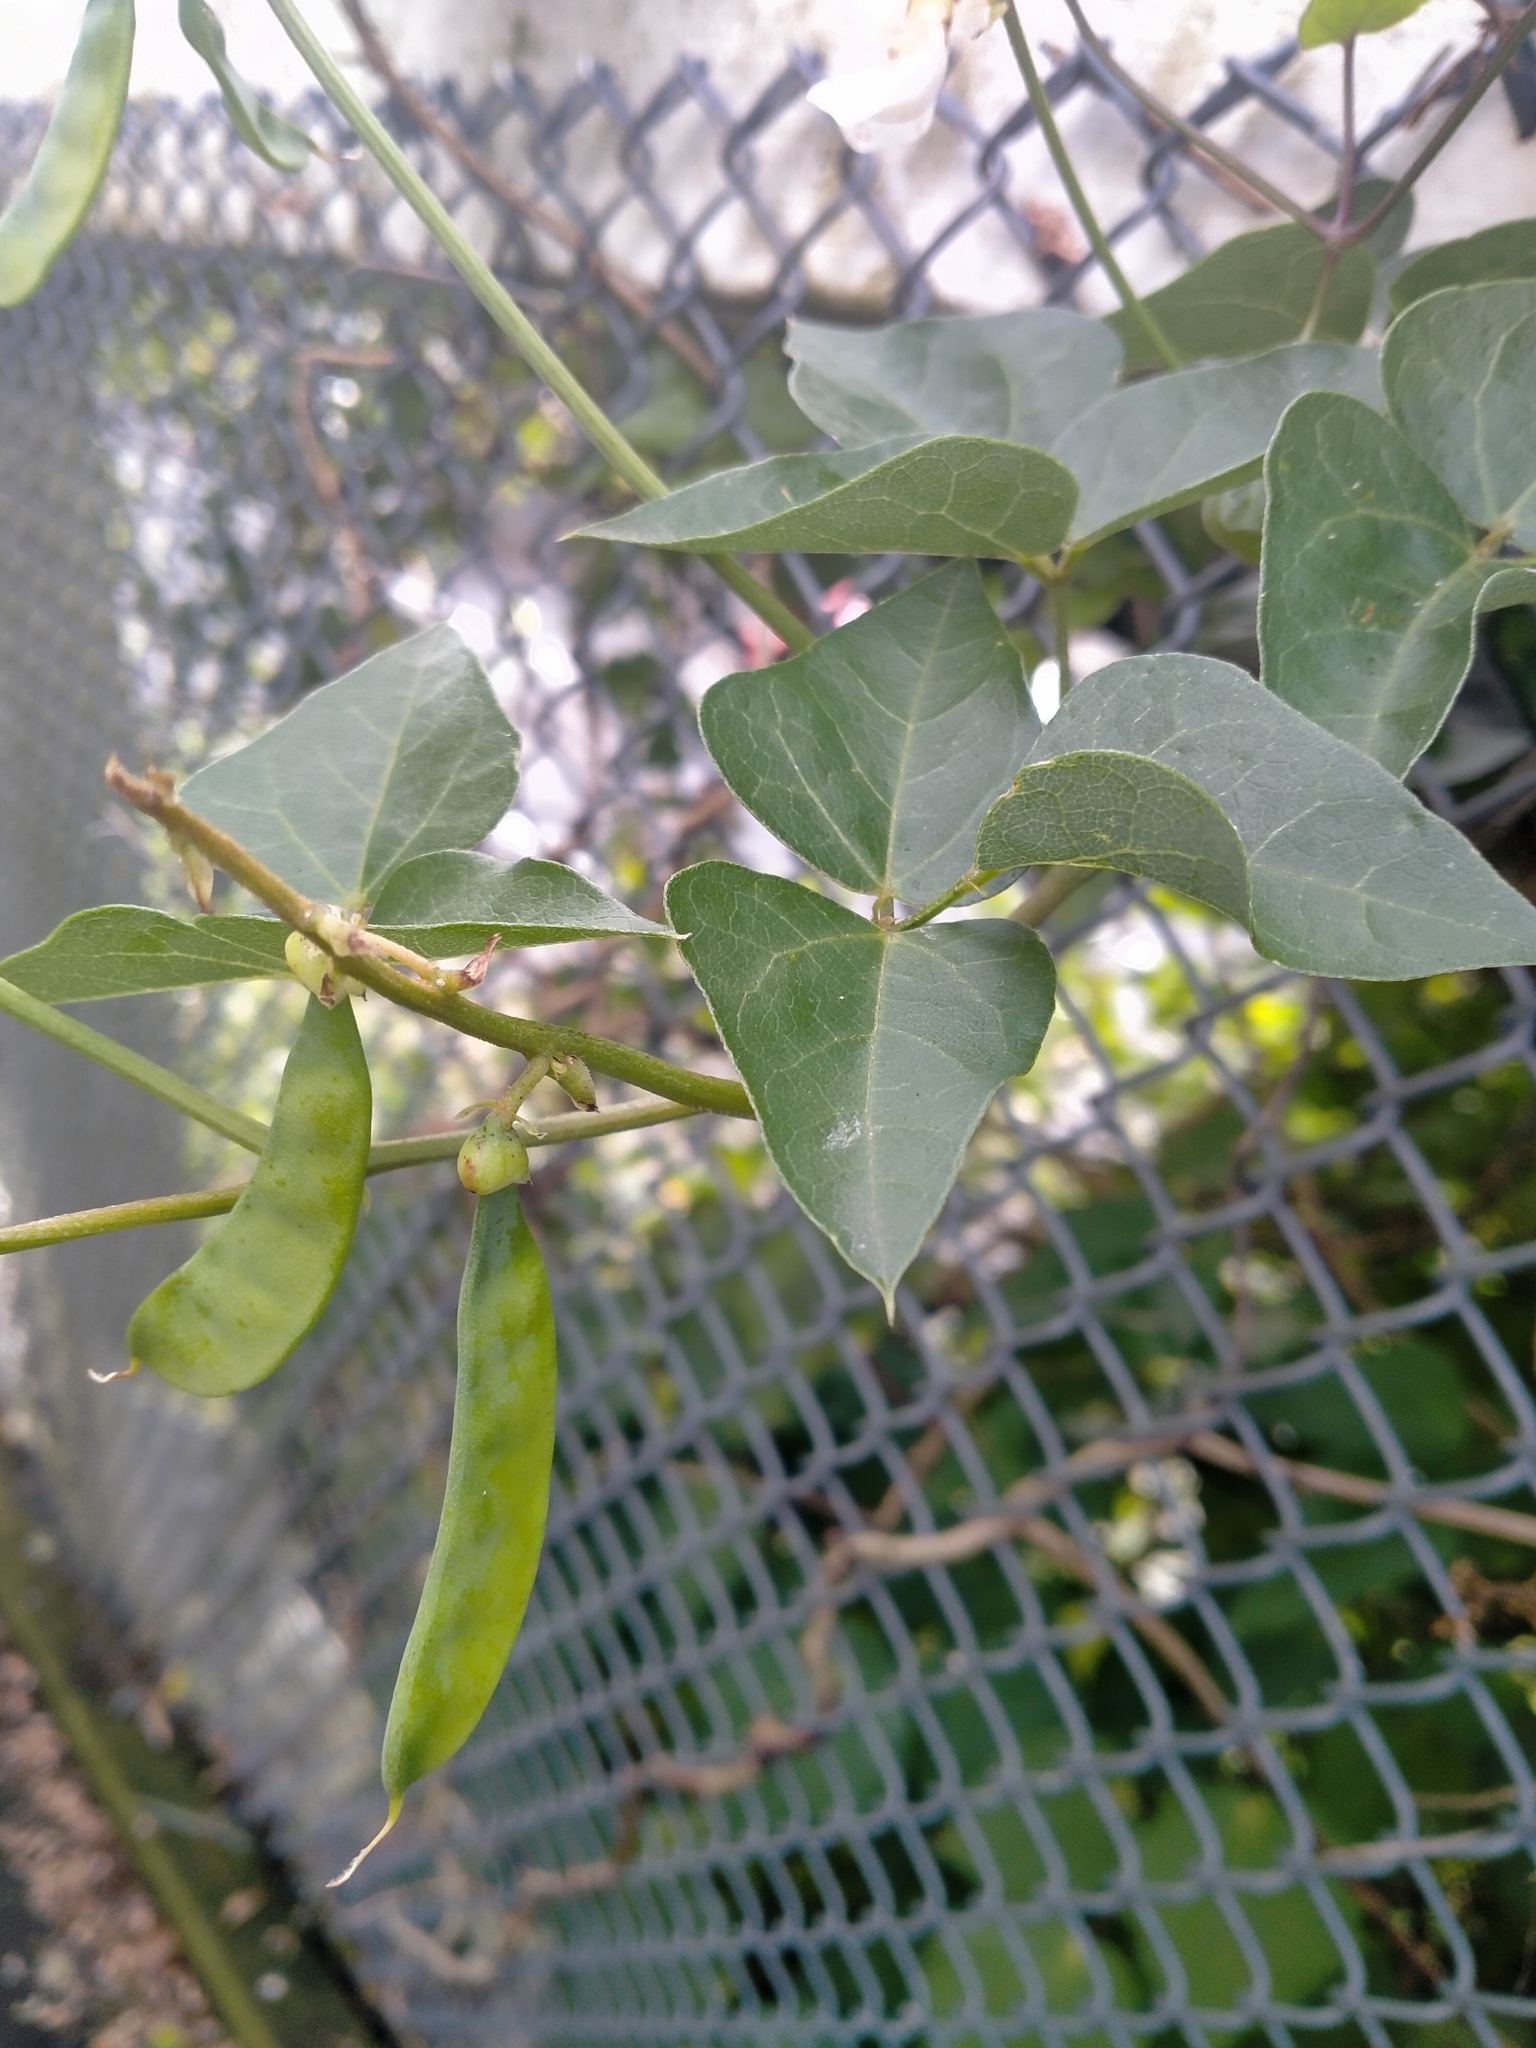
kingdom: Plantae
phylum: Tracheophyta
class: Magnoliopsida
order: Fabales
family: Fabaceae
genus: Dipogon
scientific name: Dipogon lignosus
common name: Okie bean
